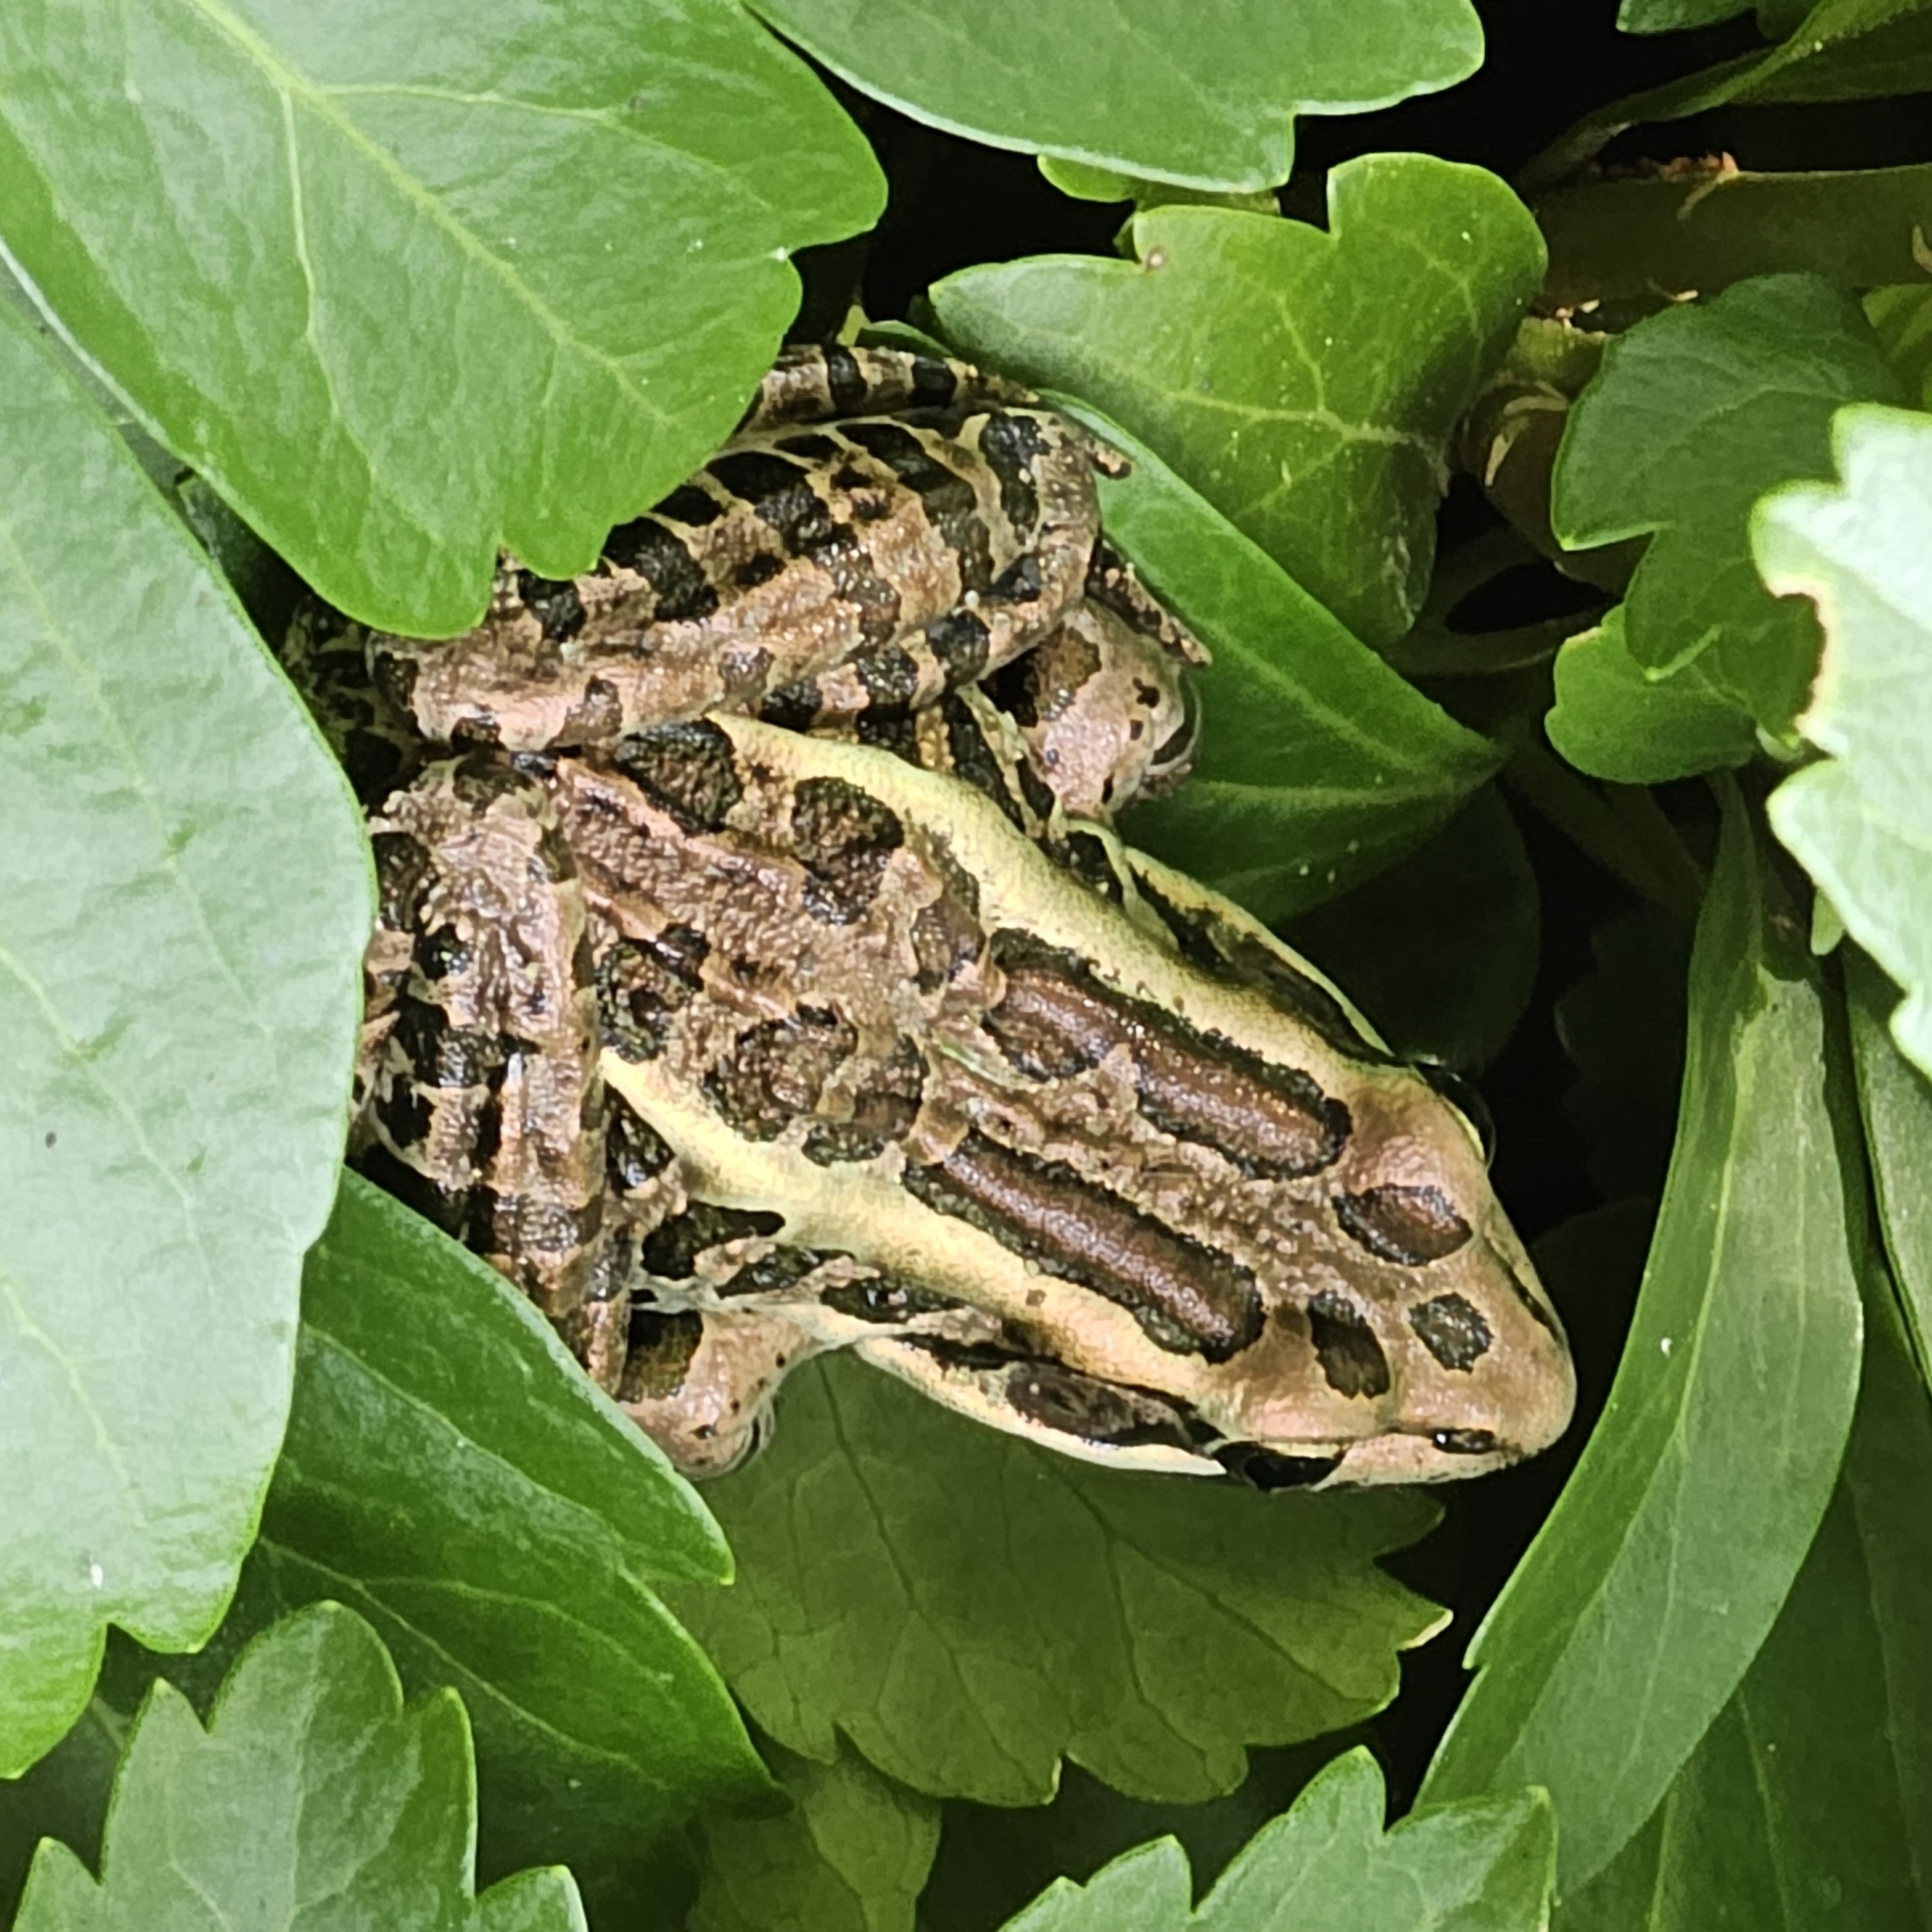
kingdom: Animalia
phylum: Chordata
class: Amphibia
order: Anura
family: Ranidae
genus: Lithobates
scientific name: Lithobates palustris
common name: Pickerel frog
